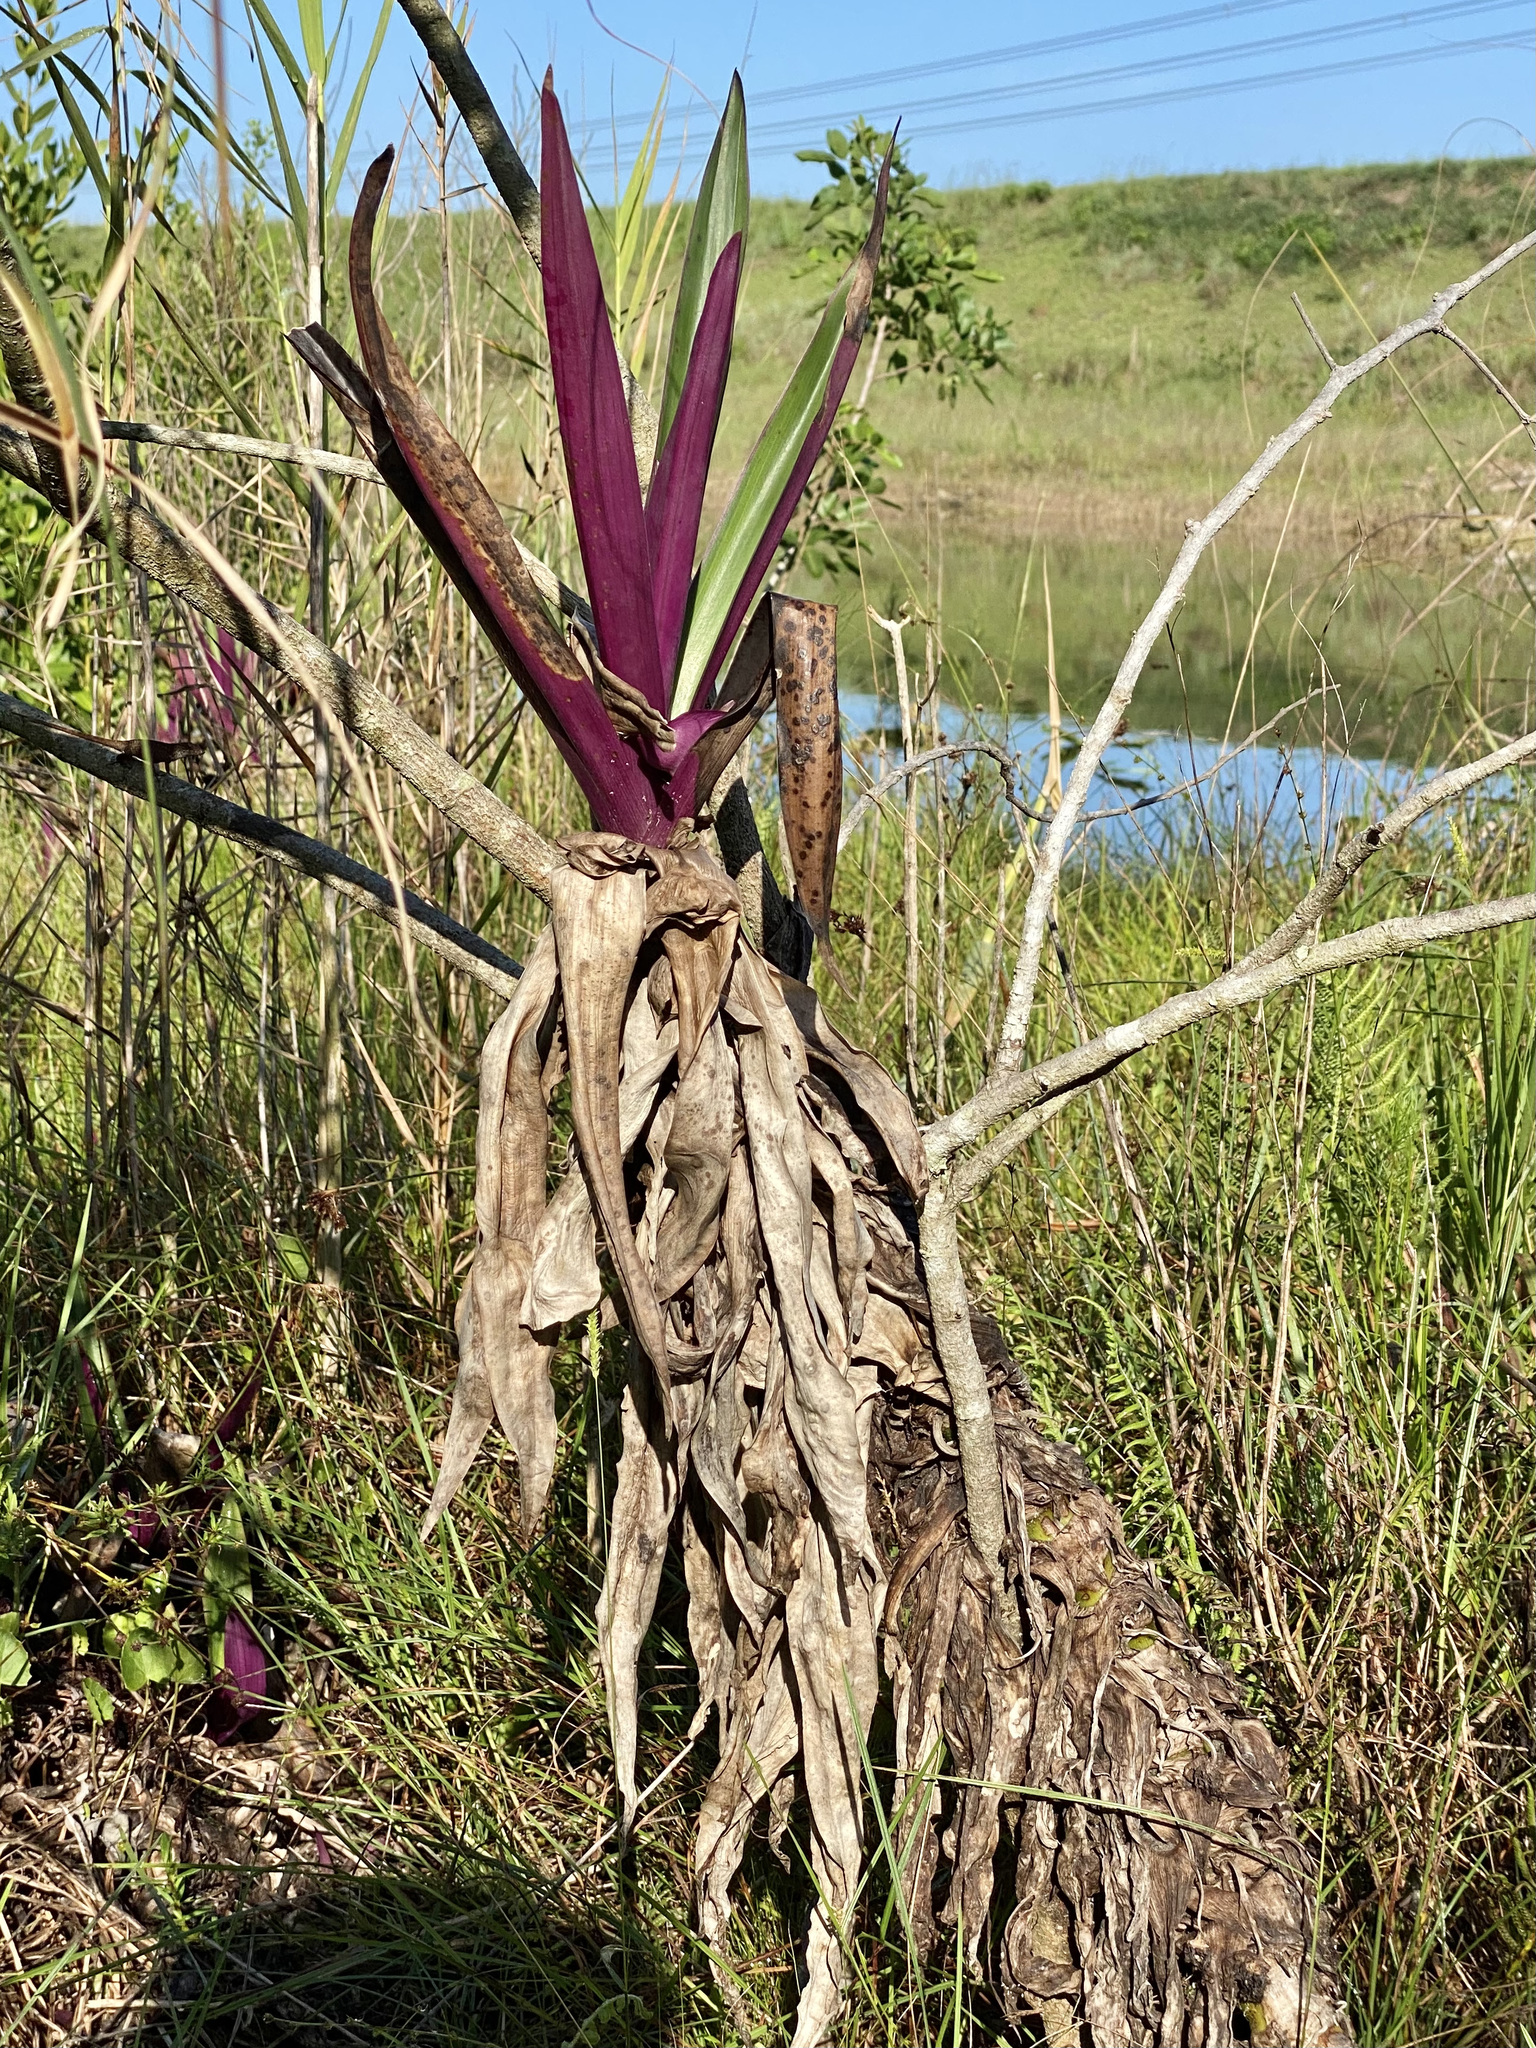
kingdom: Plantae
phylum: Tracheophyta
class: Liliopsida
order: Commelinales
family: Commelinaceae
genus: Tradescantia
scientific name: Tradescantia spathacea
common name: Boatlily
